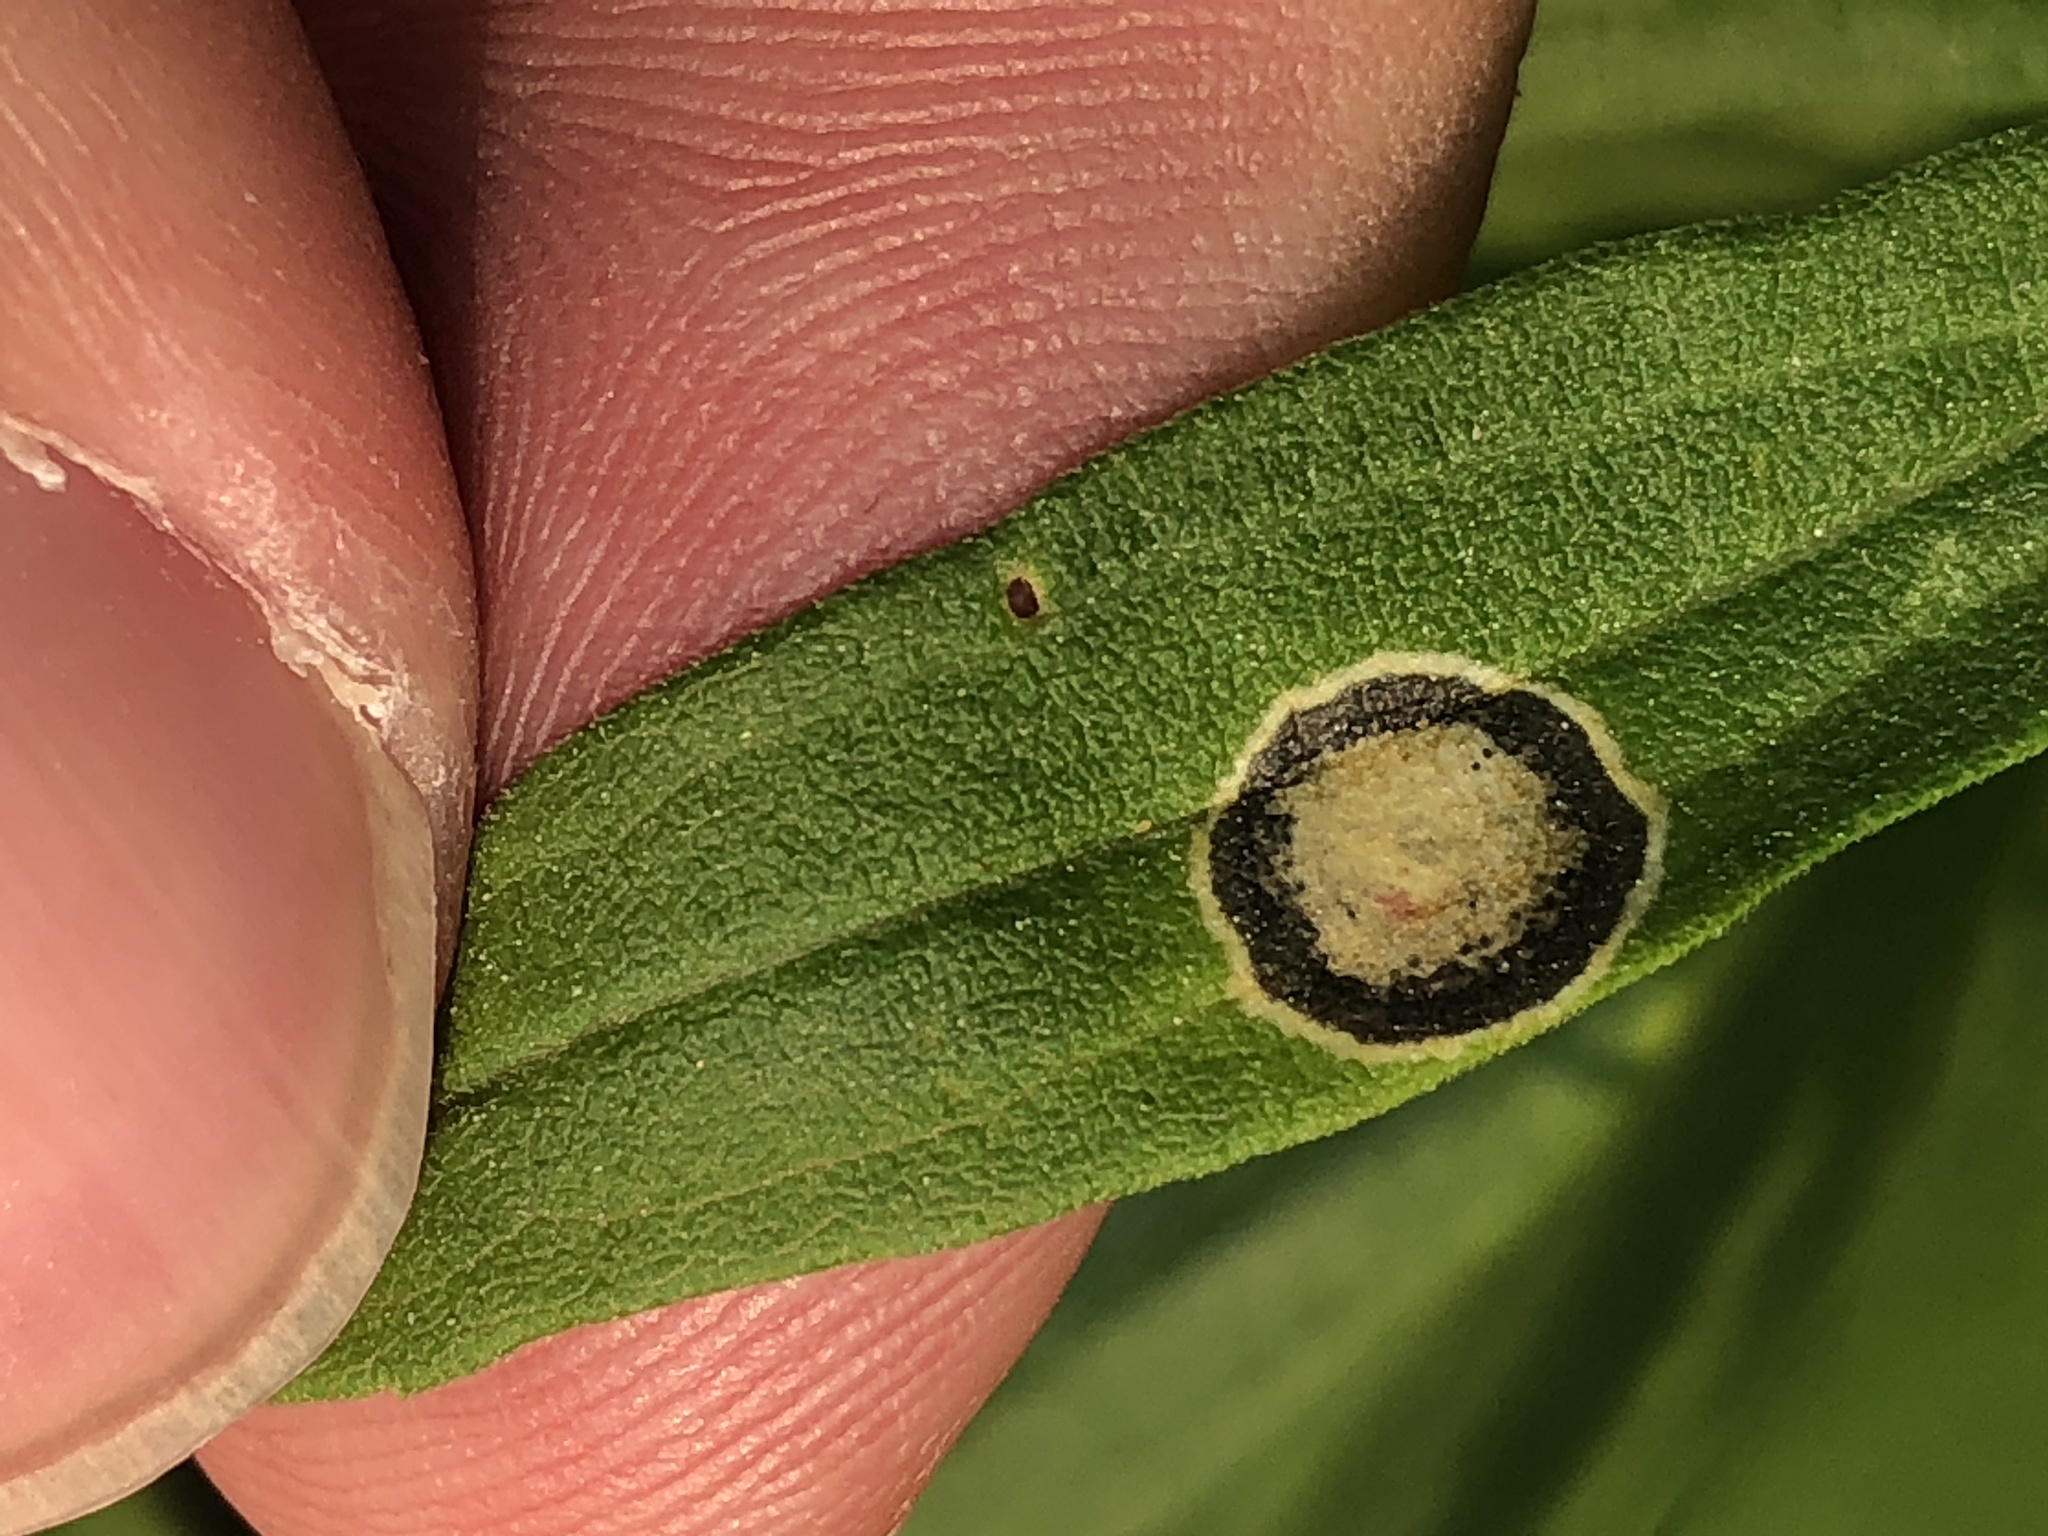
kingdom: Animalia
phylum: Arthropoda
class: Insecta
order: Diptera
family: Cecidomyiidae
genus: Asteromyia
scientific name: Asteromyia carbonifera
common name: Carbonifera goldenrod gall midge
